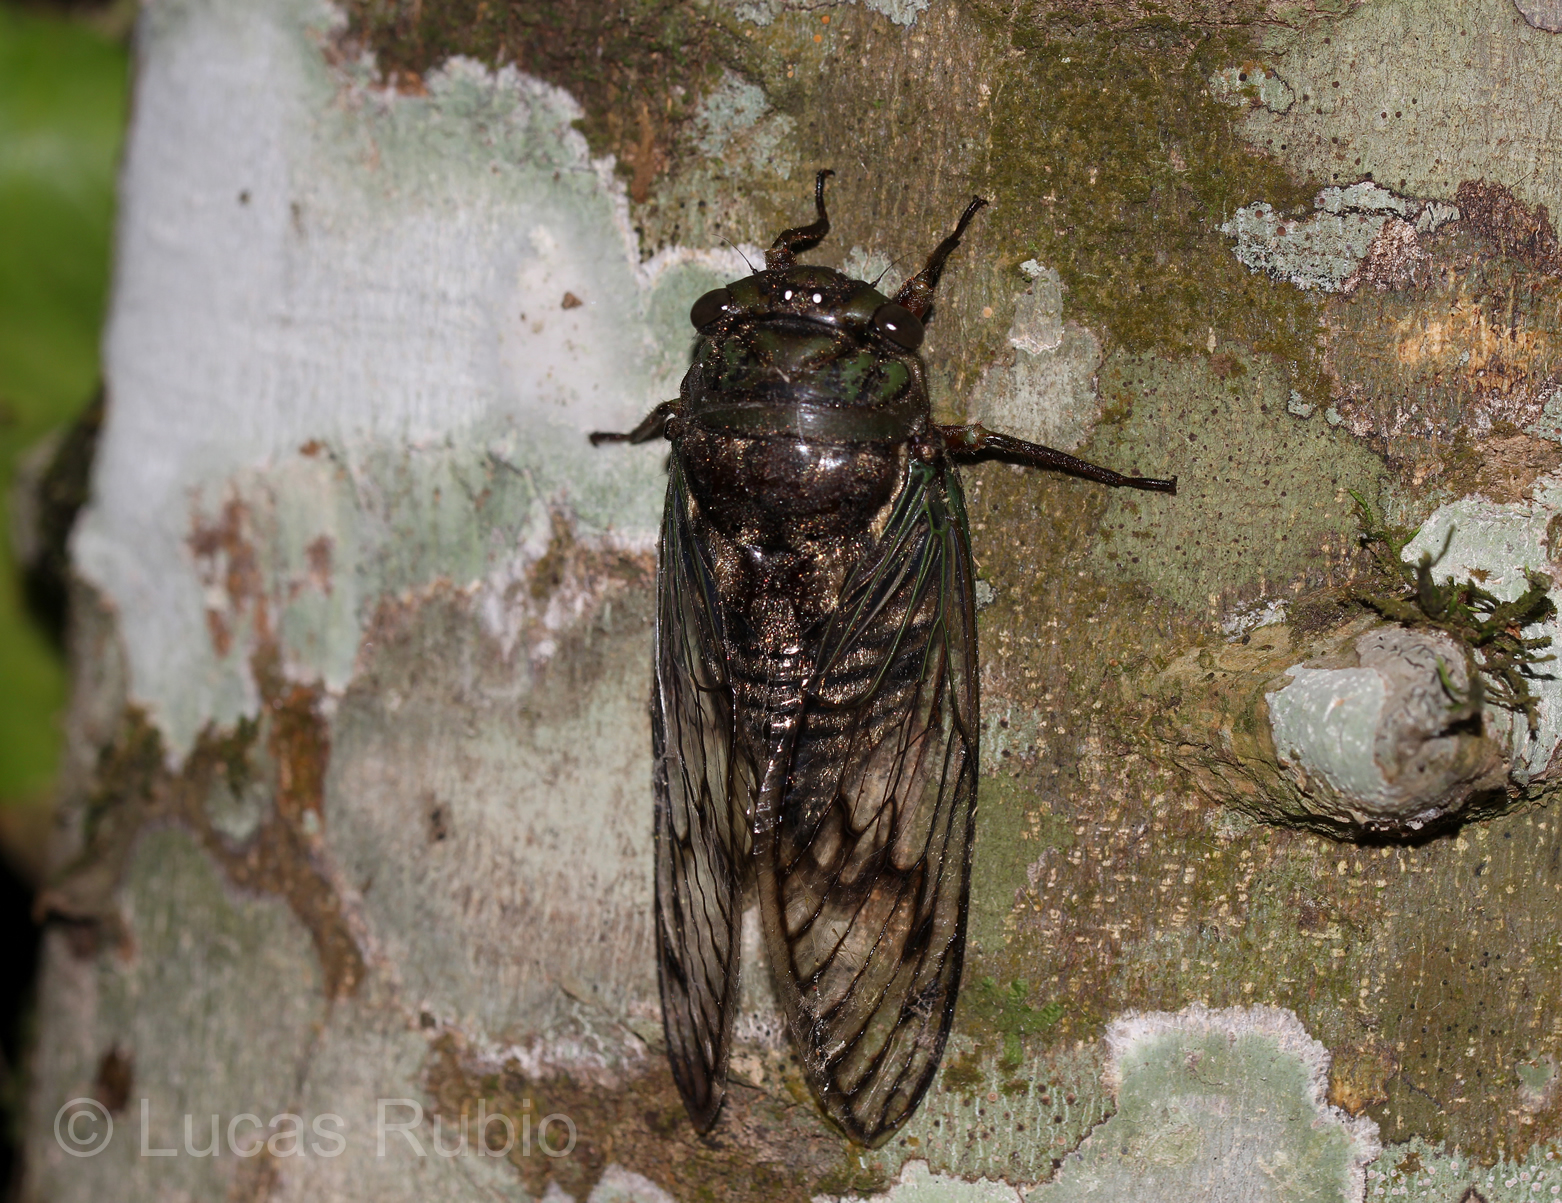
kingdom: Animalia
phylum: Arthropoda
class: Insecta
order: Hemiptera
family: Cicadidae
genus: Fidicina
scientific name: Fidicina torresi
